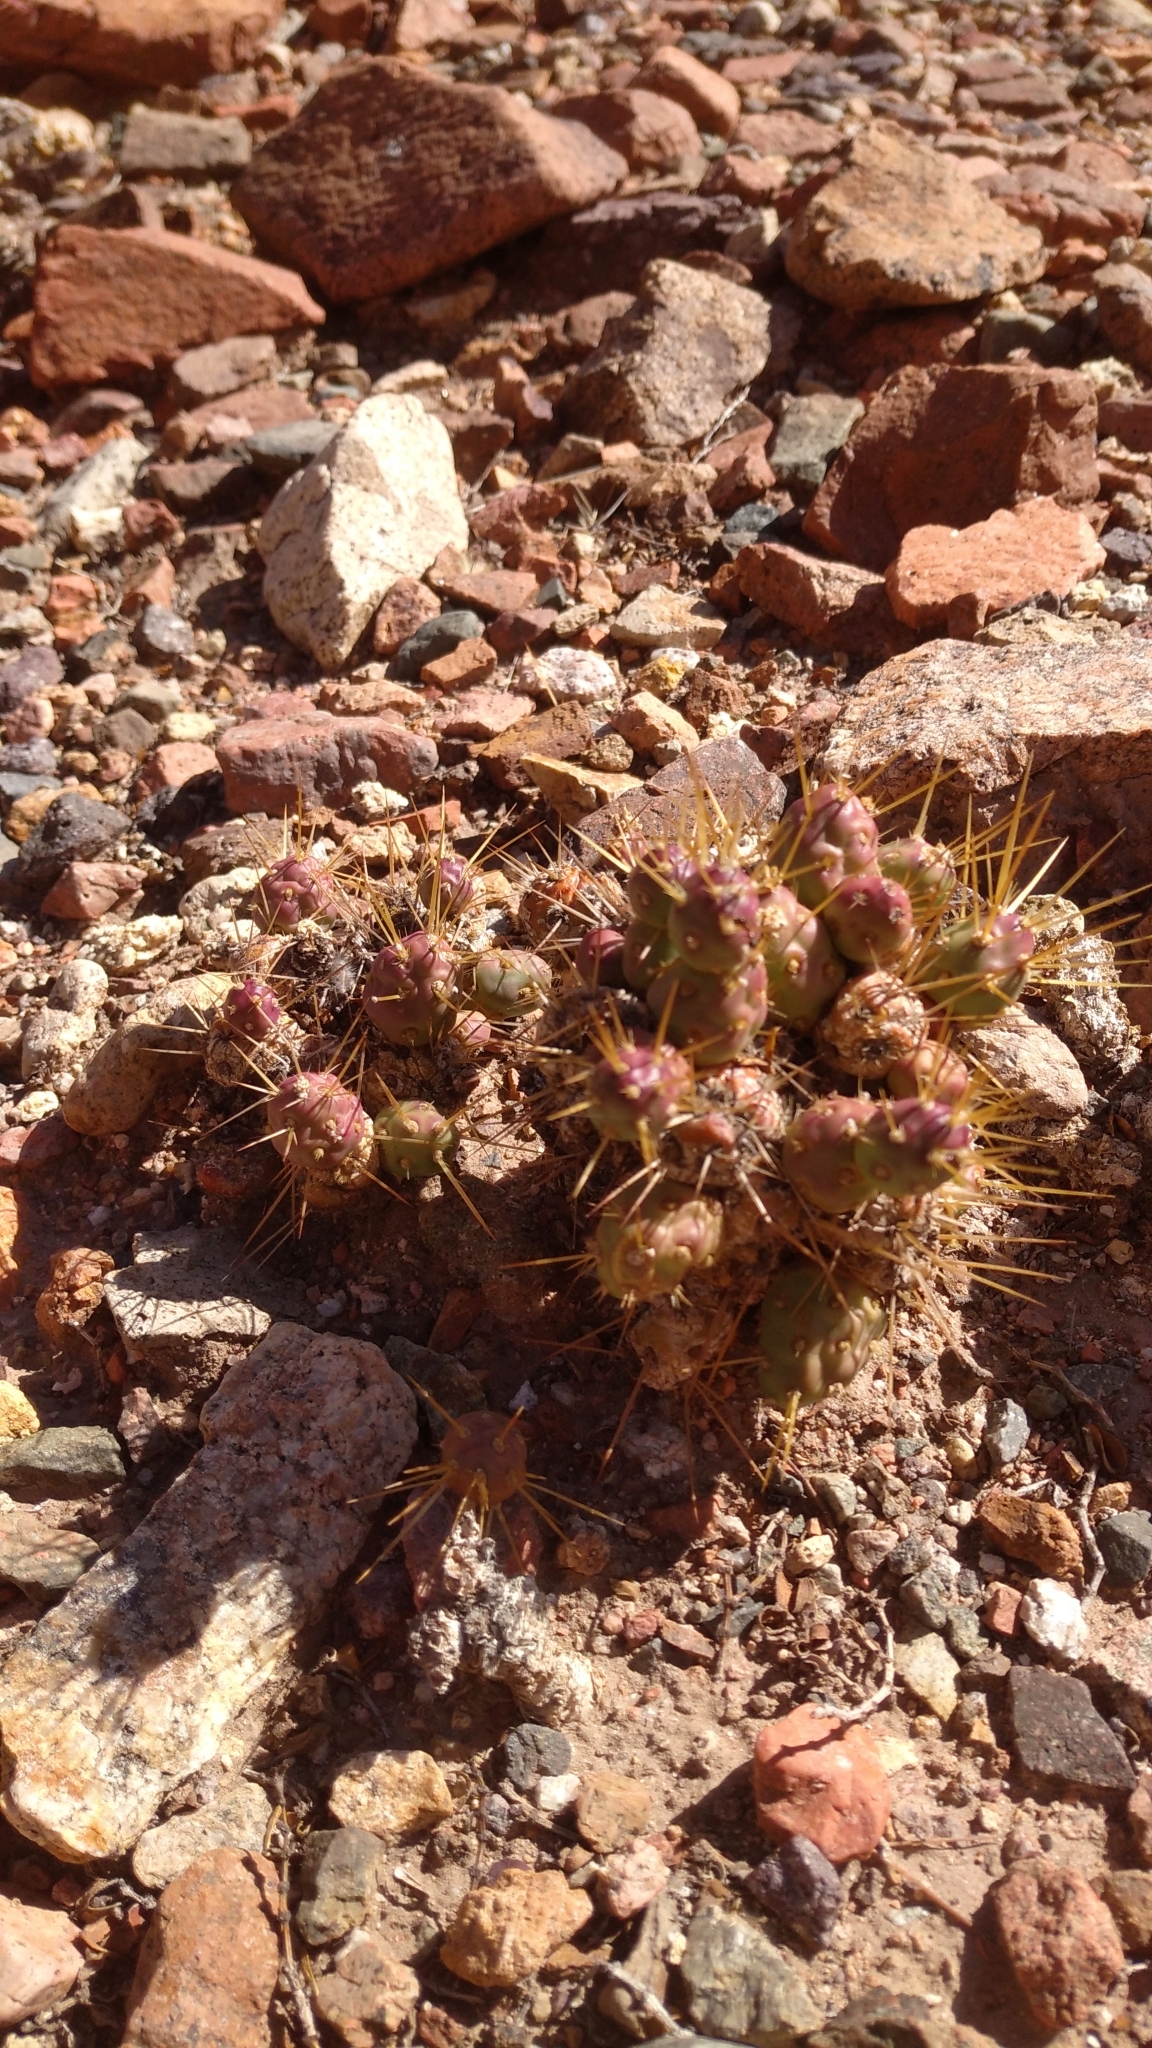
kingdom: Plantae
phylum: Tracheophyta
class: Magnoliopsida
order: Caryophyllales
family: Cactaceae
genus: Maihueniopsis
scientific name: Maihueniopsis ovata
